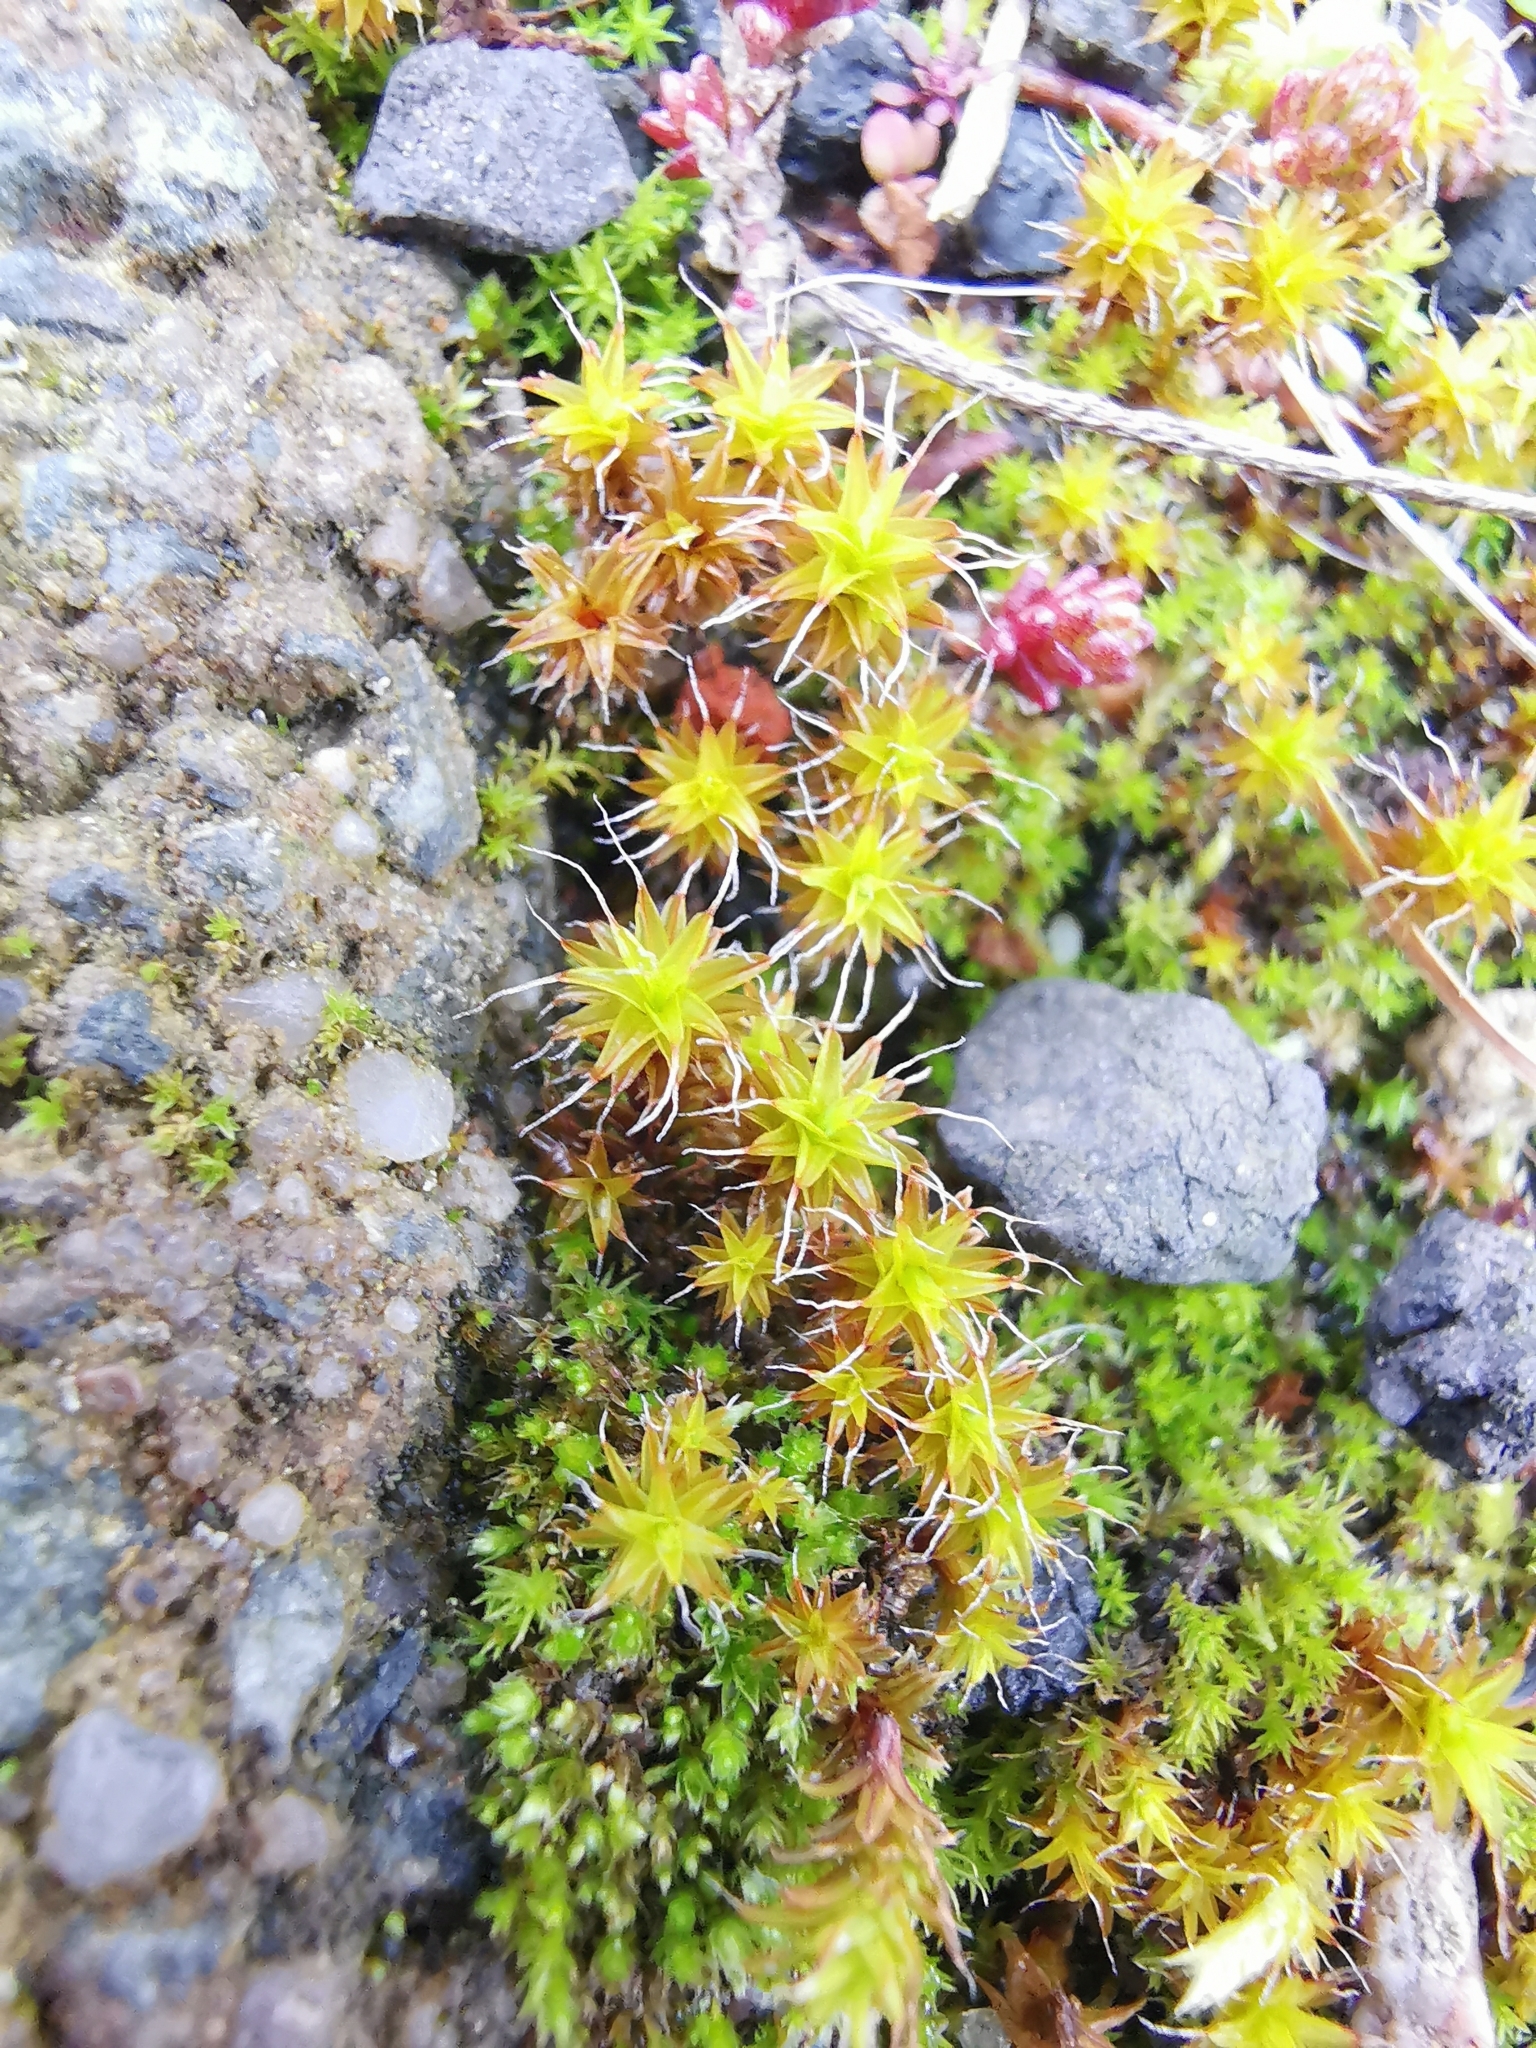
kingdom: Plantae
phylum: Bryophyta
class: Bryopsida
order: Pottiales
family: Pottiaceae
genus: Syntrichia
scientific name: Syntrichia ruralis
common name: Sidewalk screw moss
